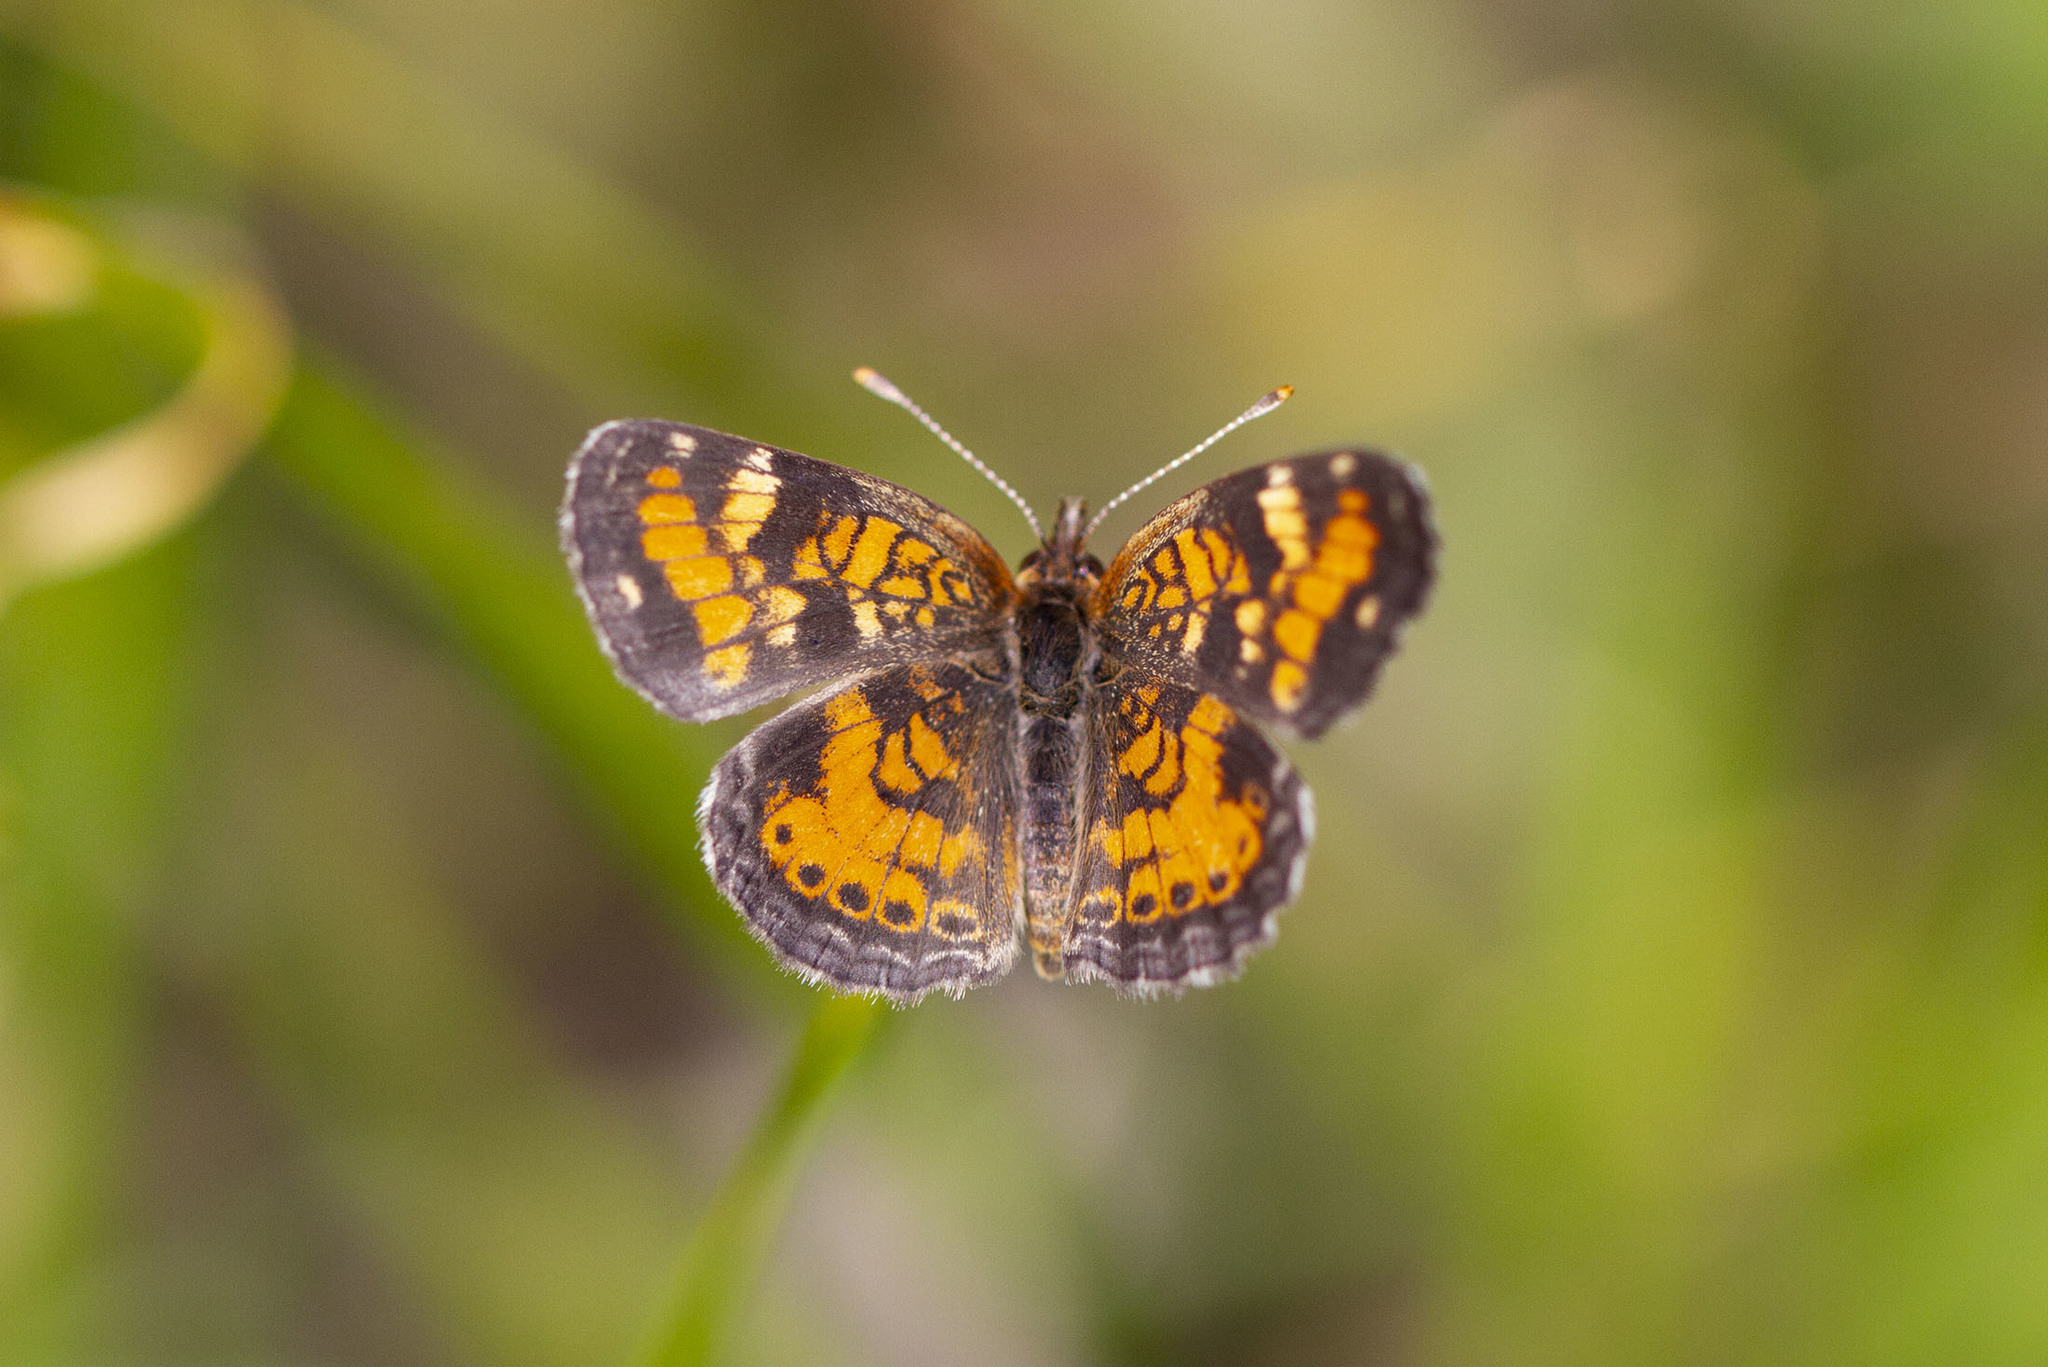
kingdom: Animalia
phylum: Arthropoda
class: Insecta
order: Lepidoptera
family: Nymphalidae
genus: Phyciodes
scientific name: Phyciodes phaon
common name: Phaon crescent
